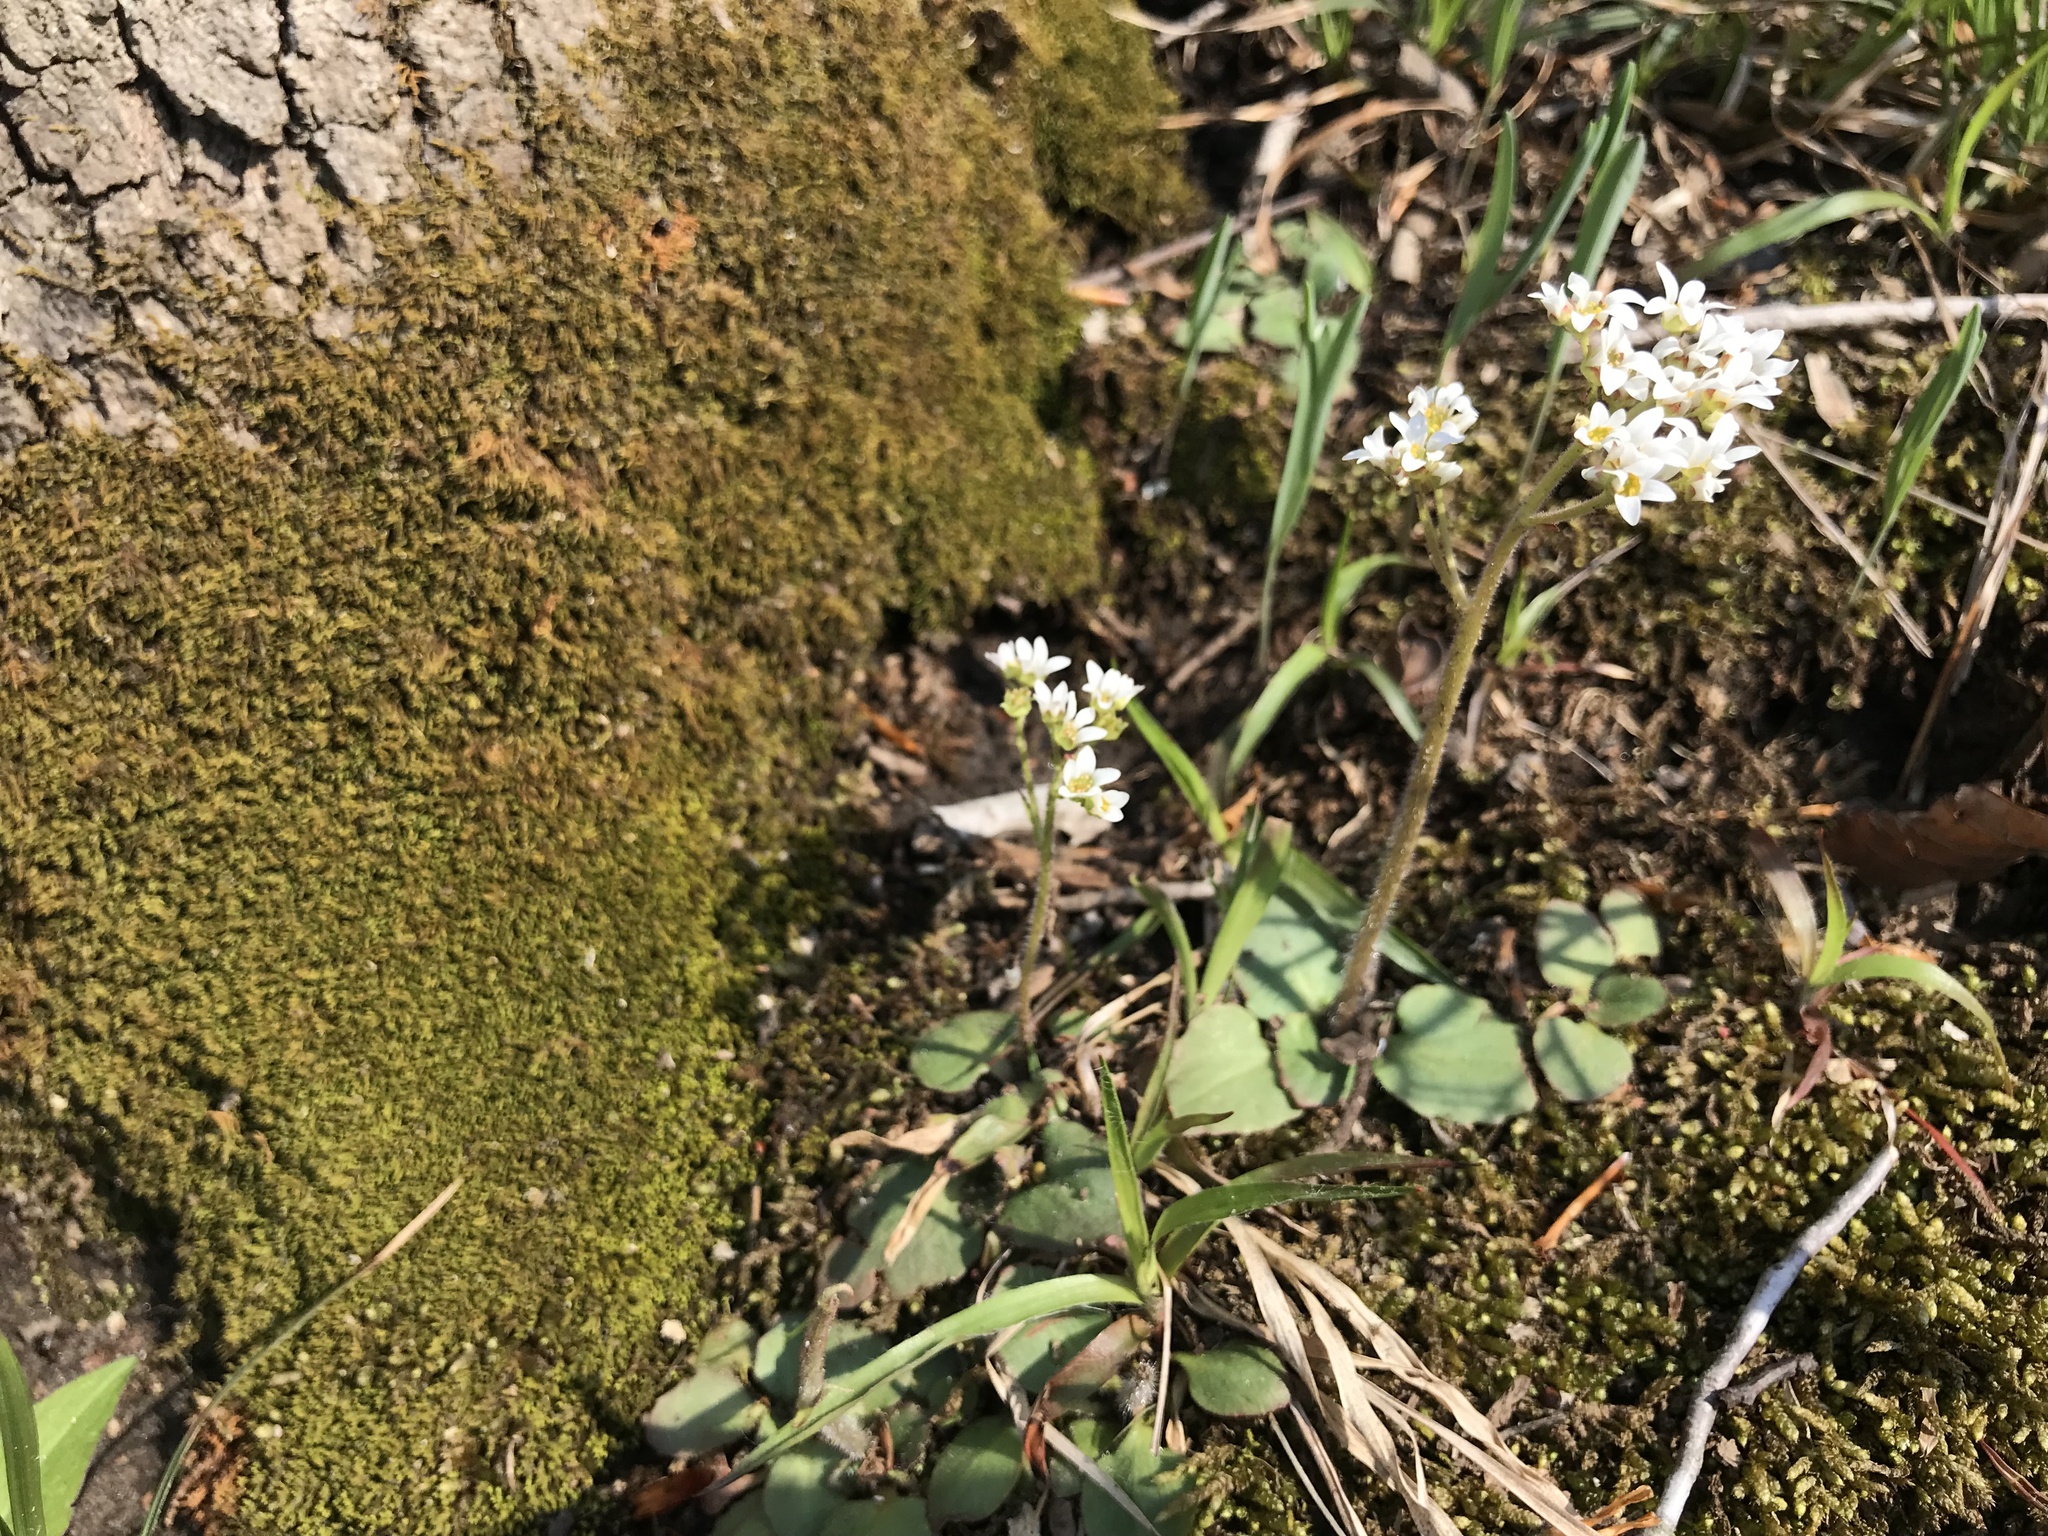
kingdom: Plantae
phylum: Tracheophyta
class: Magnoliopsida
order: Saxifragales
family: Saxifragaceae
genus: Micranthes
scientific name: Micranthes virginiensis
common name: Early saxifrage
